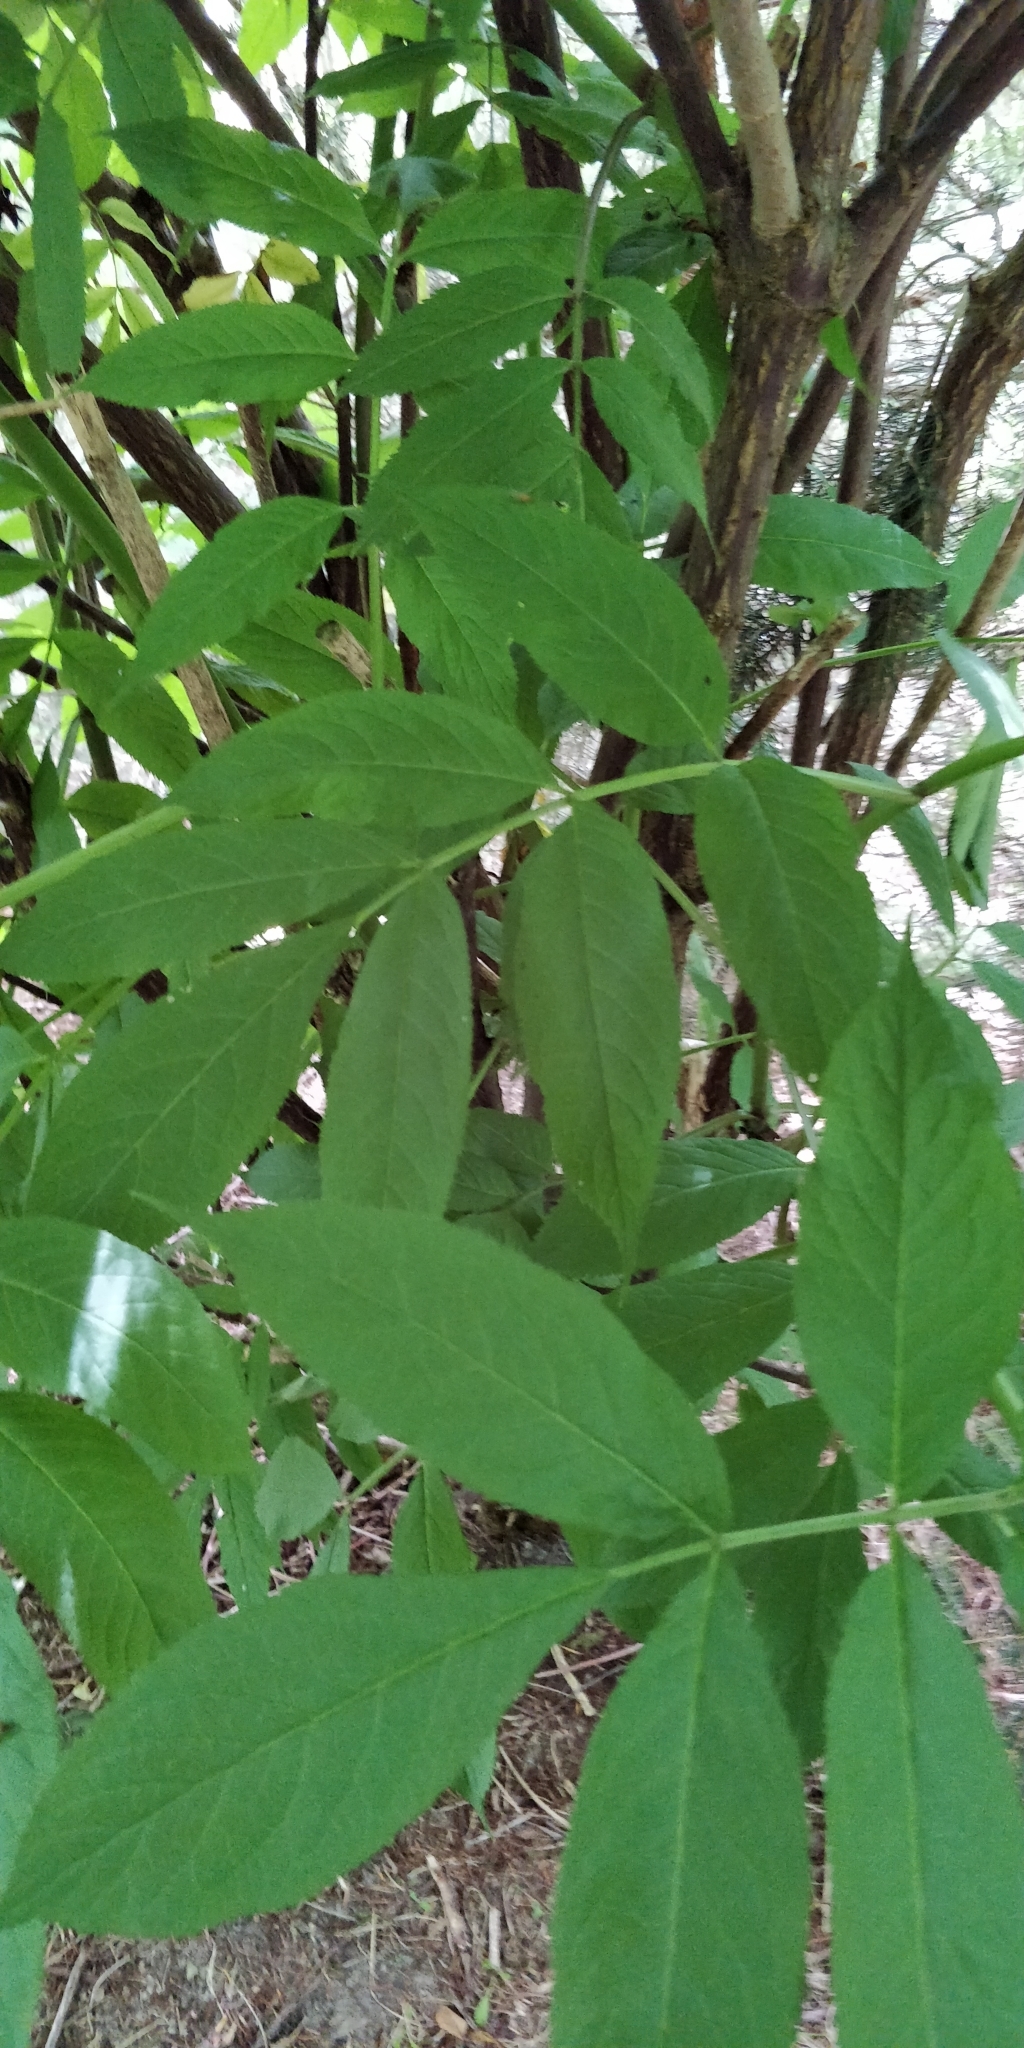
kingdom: Plantae
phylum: Tracheophyta
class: Magnoliopsida
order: Dipsacales
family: Viburnaceae
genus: Sambucus
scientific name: Sambucus racemosa
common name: Red-berried elder
